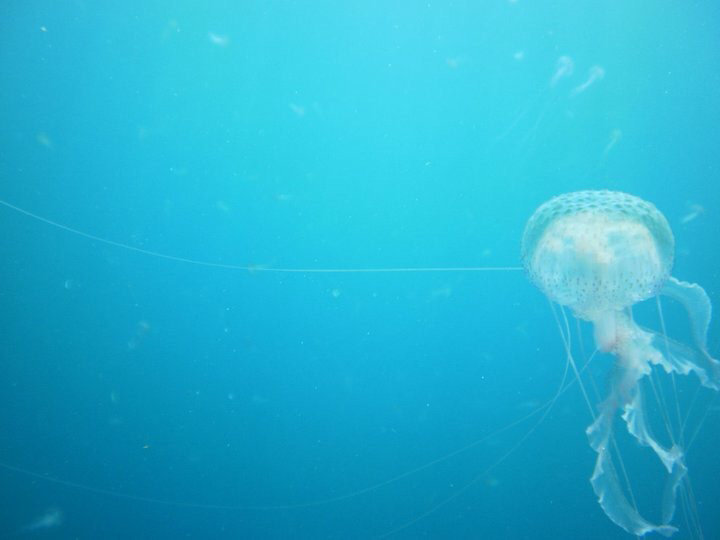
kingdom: Animalia
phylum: Cnidaria
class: Scyphozoa
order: Semaeostomeae
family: Pelagiidae
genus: Pelagia
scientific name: Pelagia noctiluca
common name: Mauve stinger
